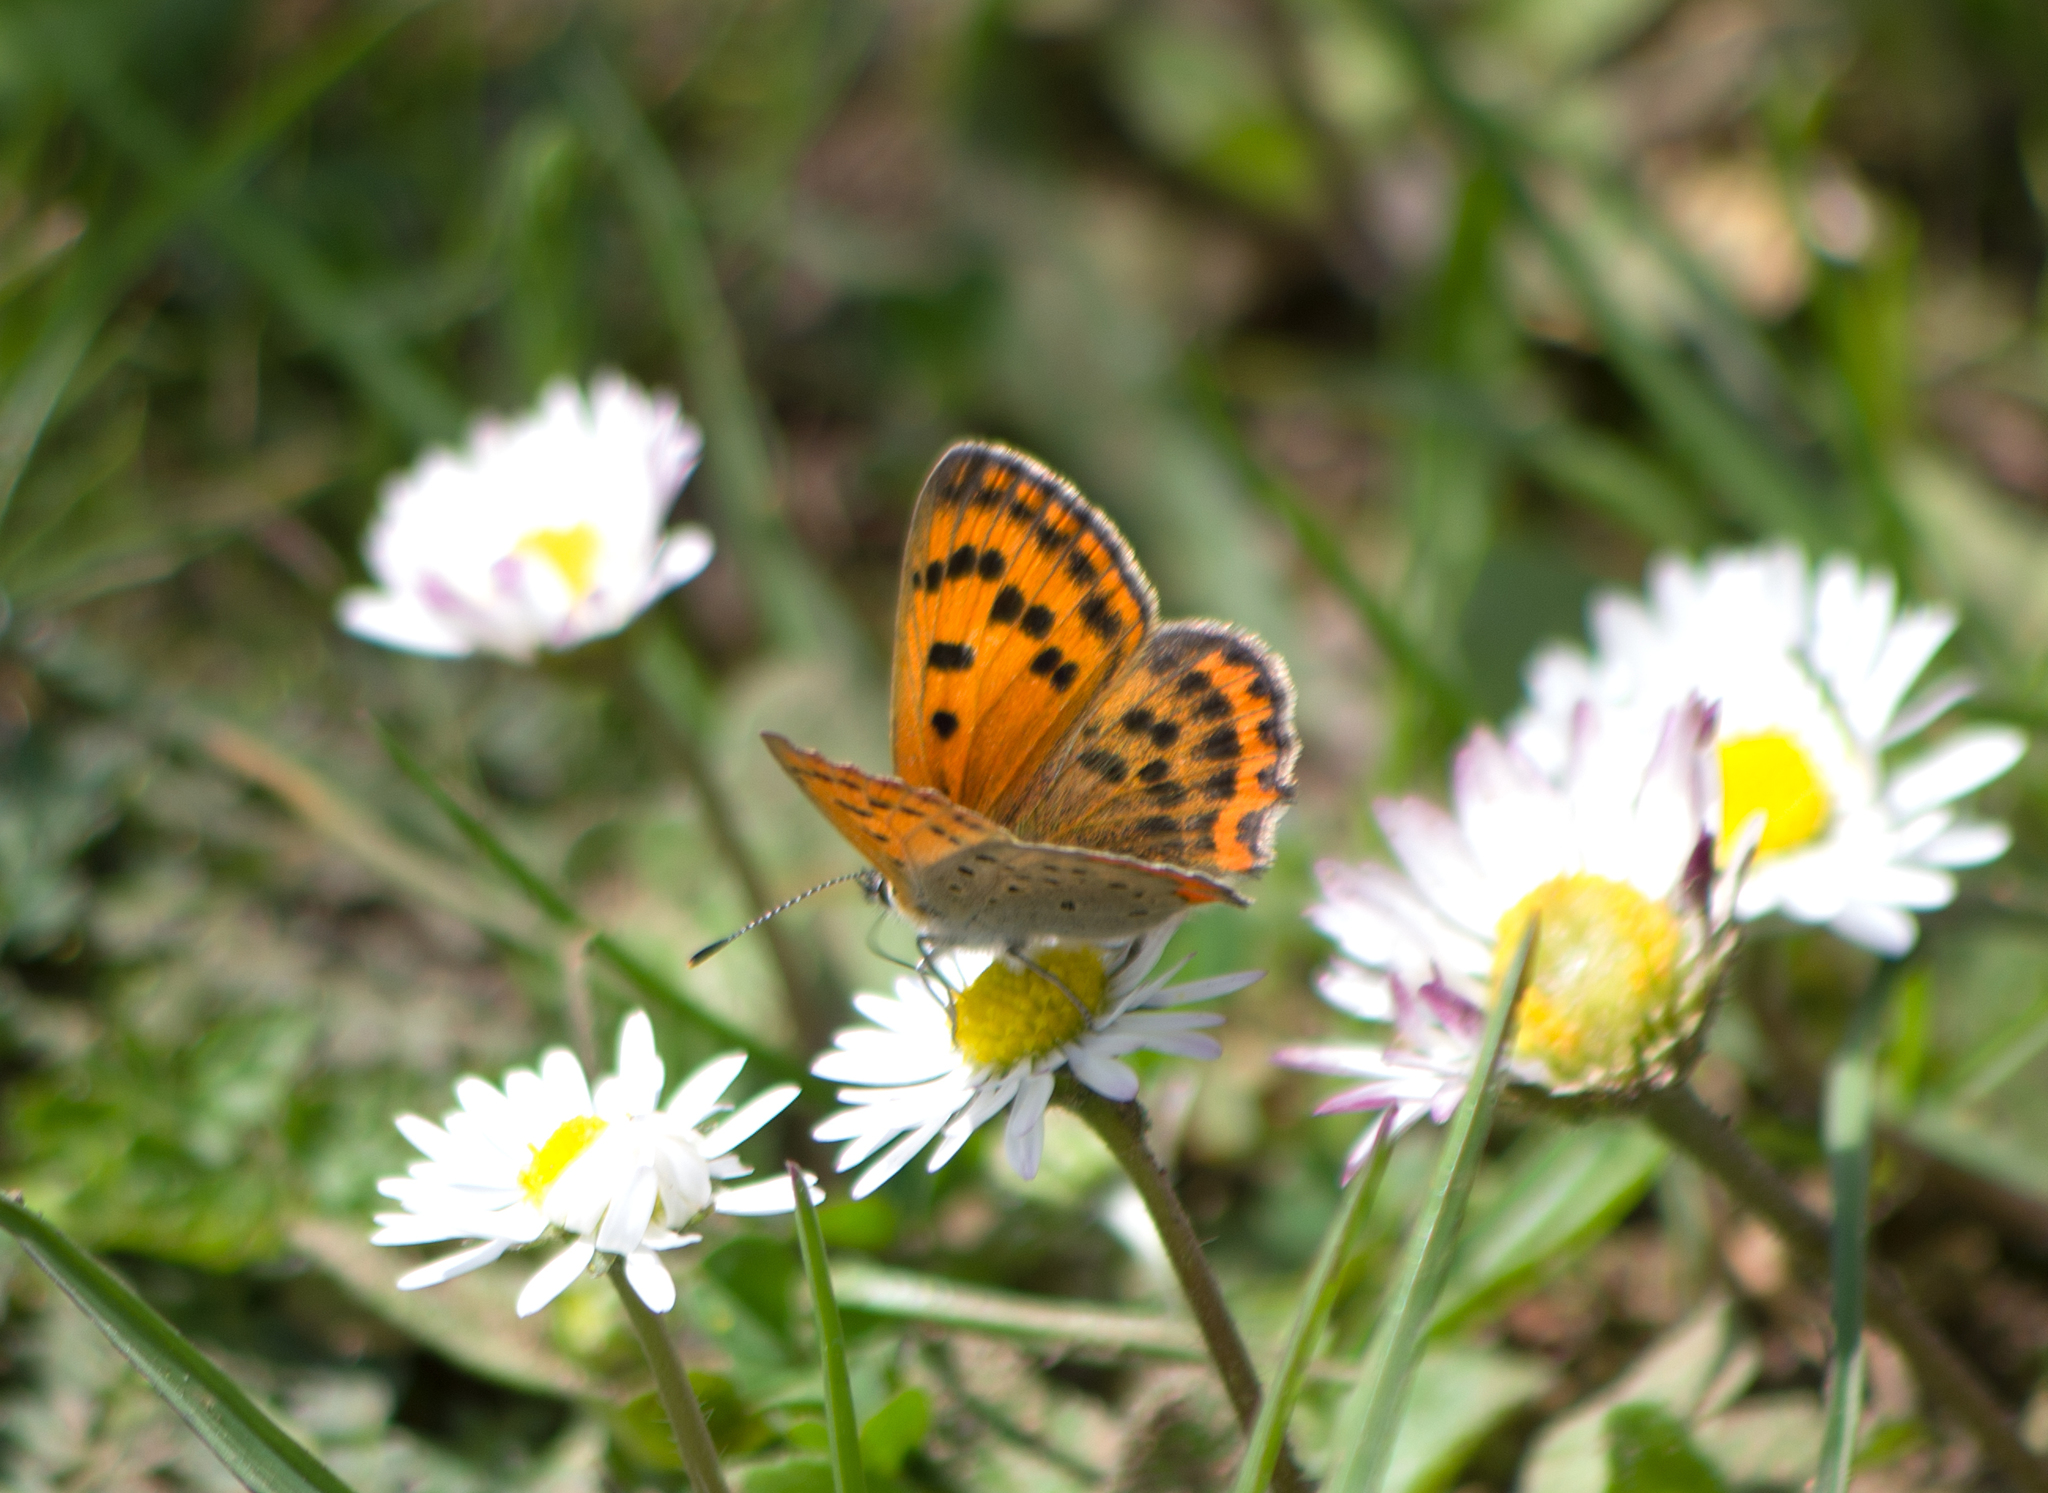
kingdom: Animalia
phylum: Arthropoda
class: Insecta
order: Lepidoptera
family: Lycaenidae
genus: Polyommatus
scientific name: Polyommatus ottomanus
